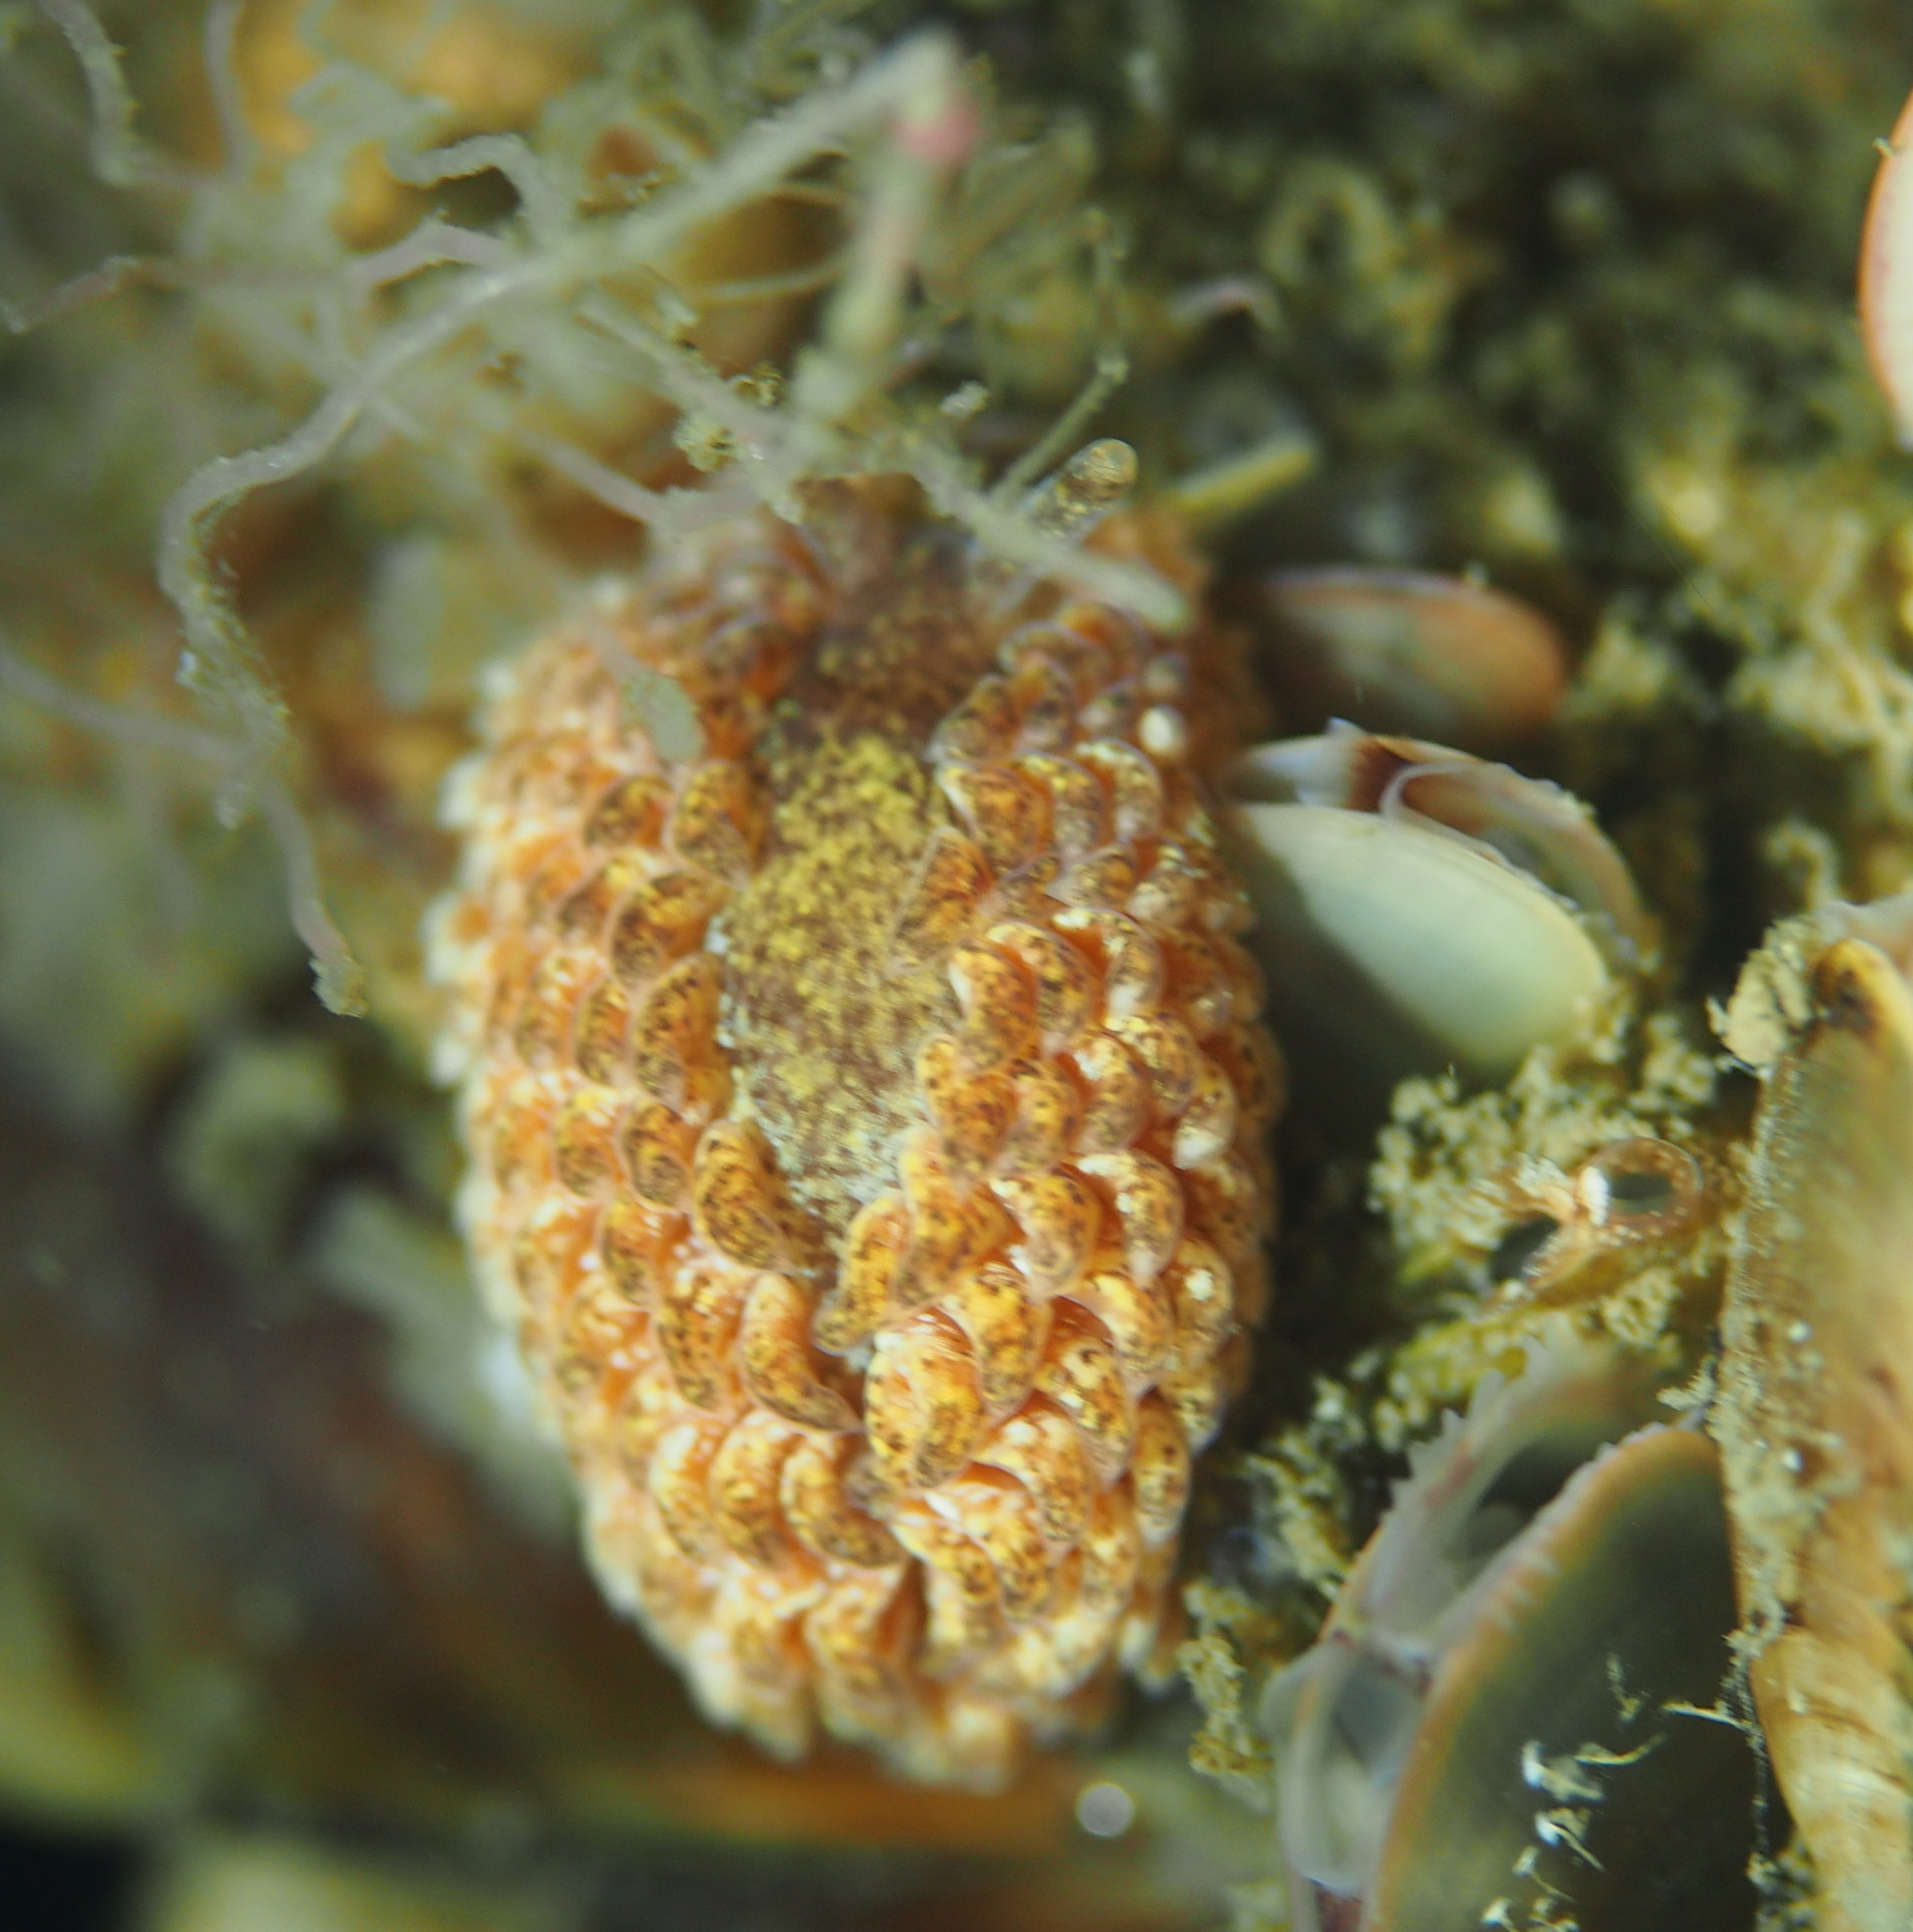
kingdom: Animalia
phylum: Mollusca
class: Gastropoda
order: Nudibranchia
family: Aeolidiidae
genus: Aeolidia
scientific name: Aeolidia papillosa
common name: Common grey sea slug
